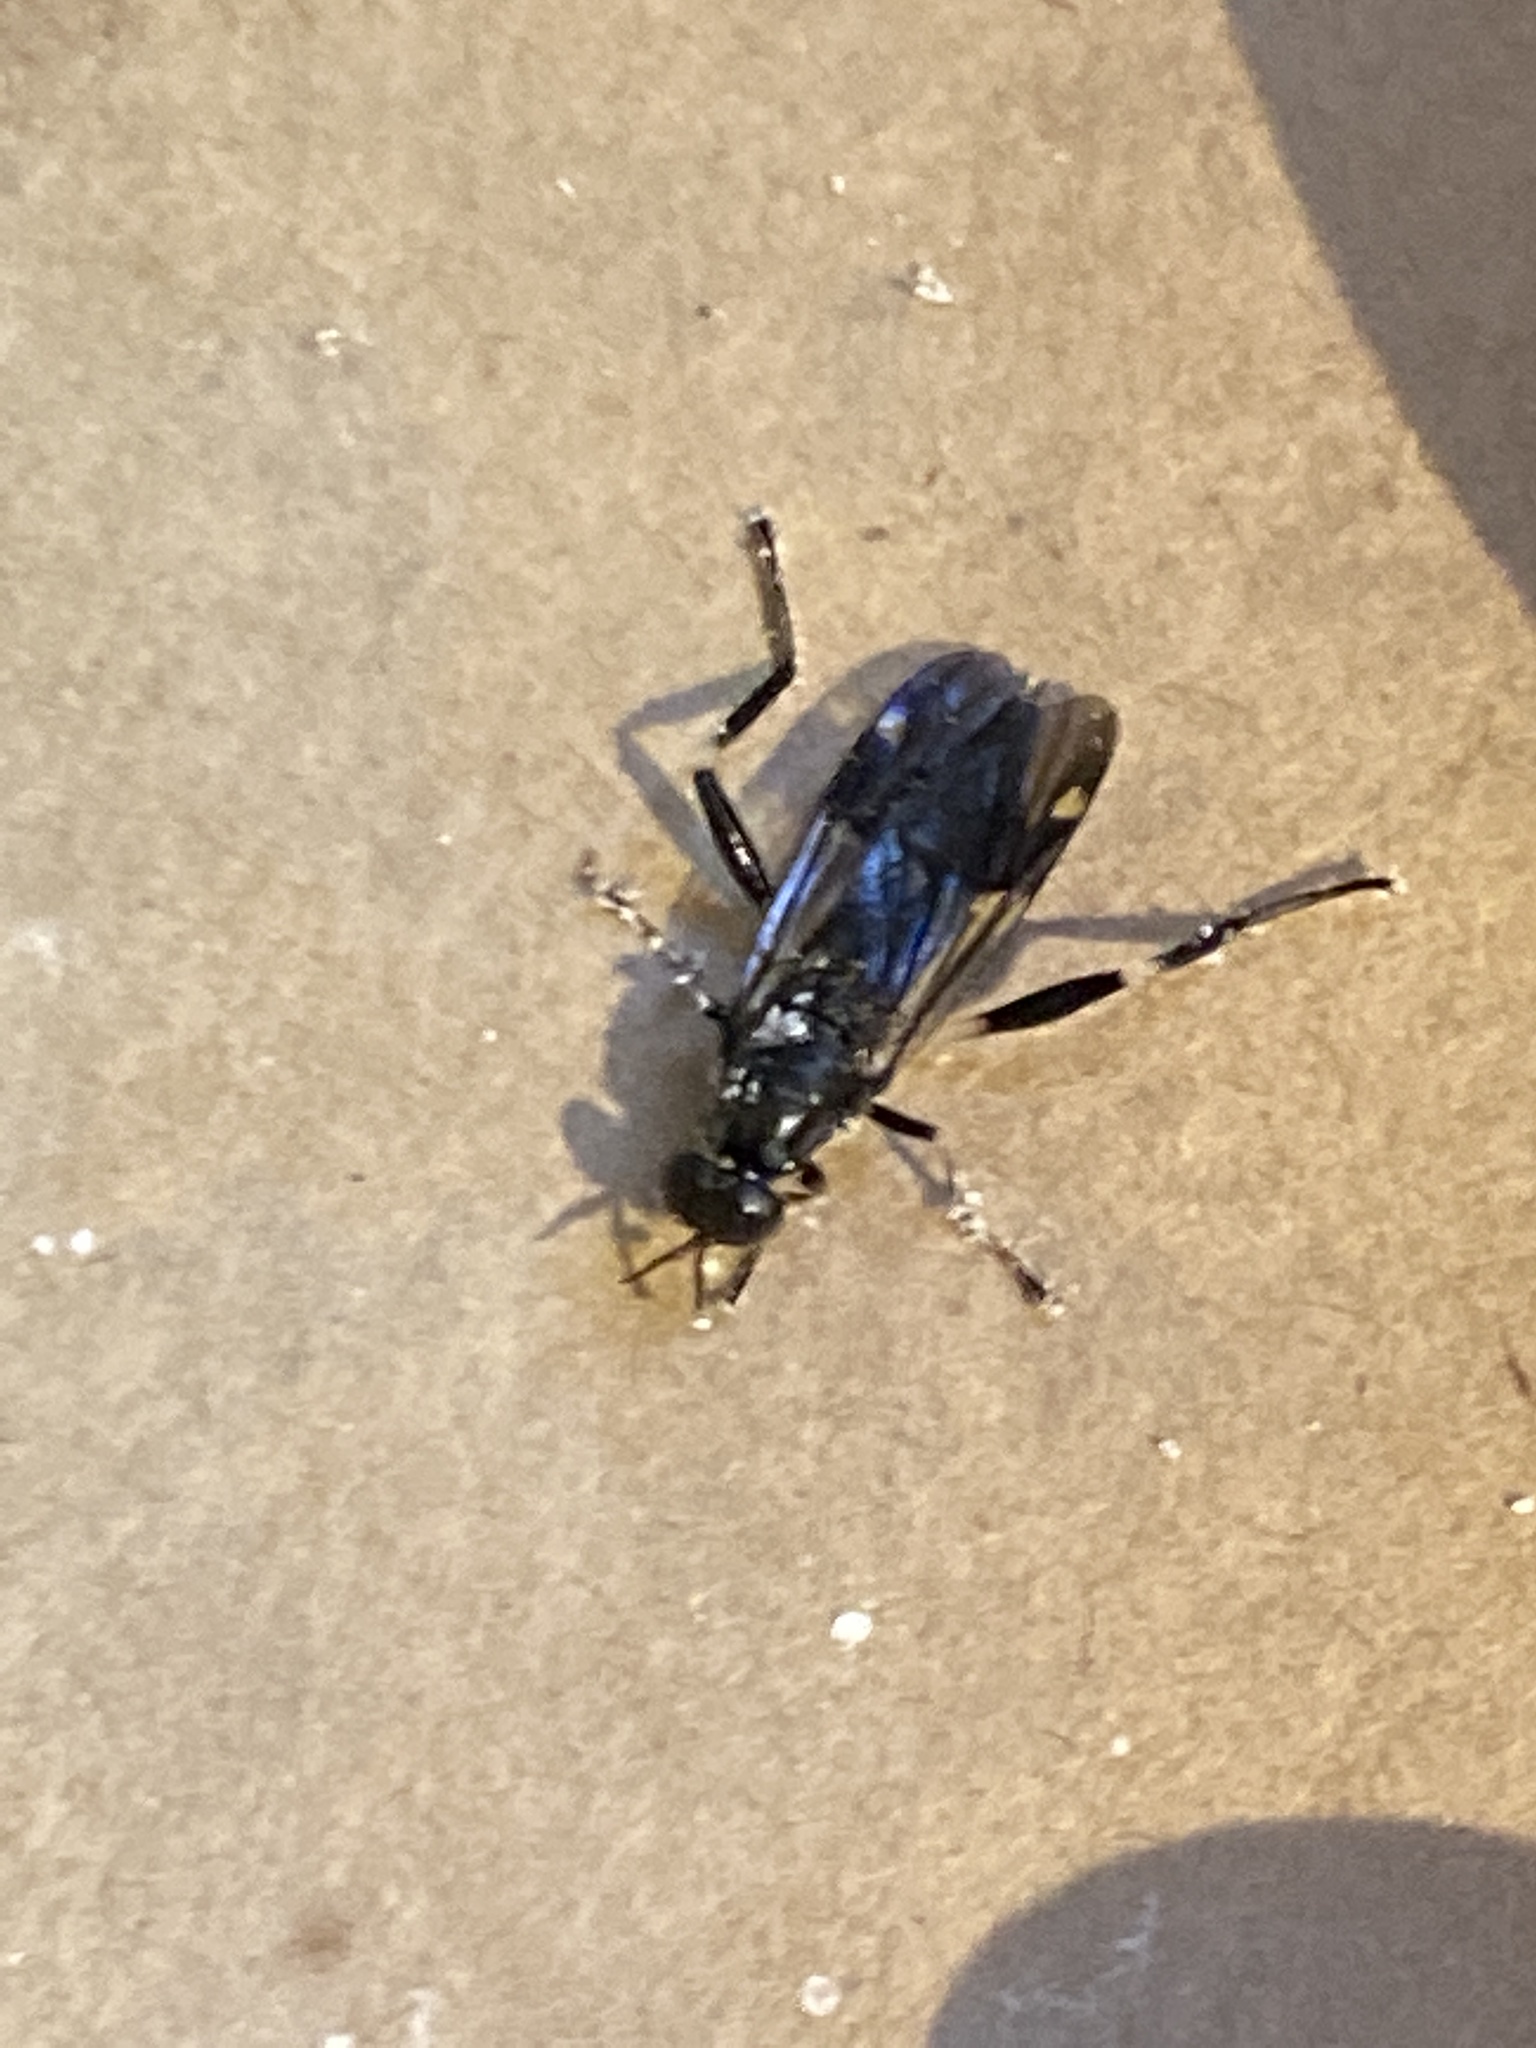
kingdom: Animalia
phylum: Arthropoda
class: Insecta
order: Diptera
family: Stratiomyidae
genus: Exaireta
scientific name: Exaireta spinigera
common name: Blue soldier fly
